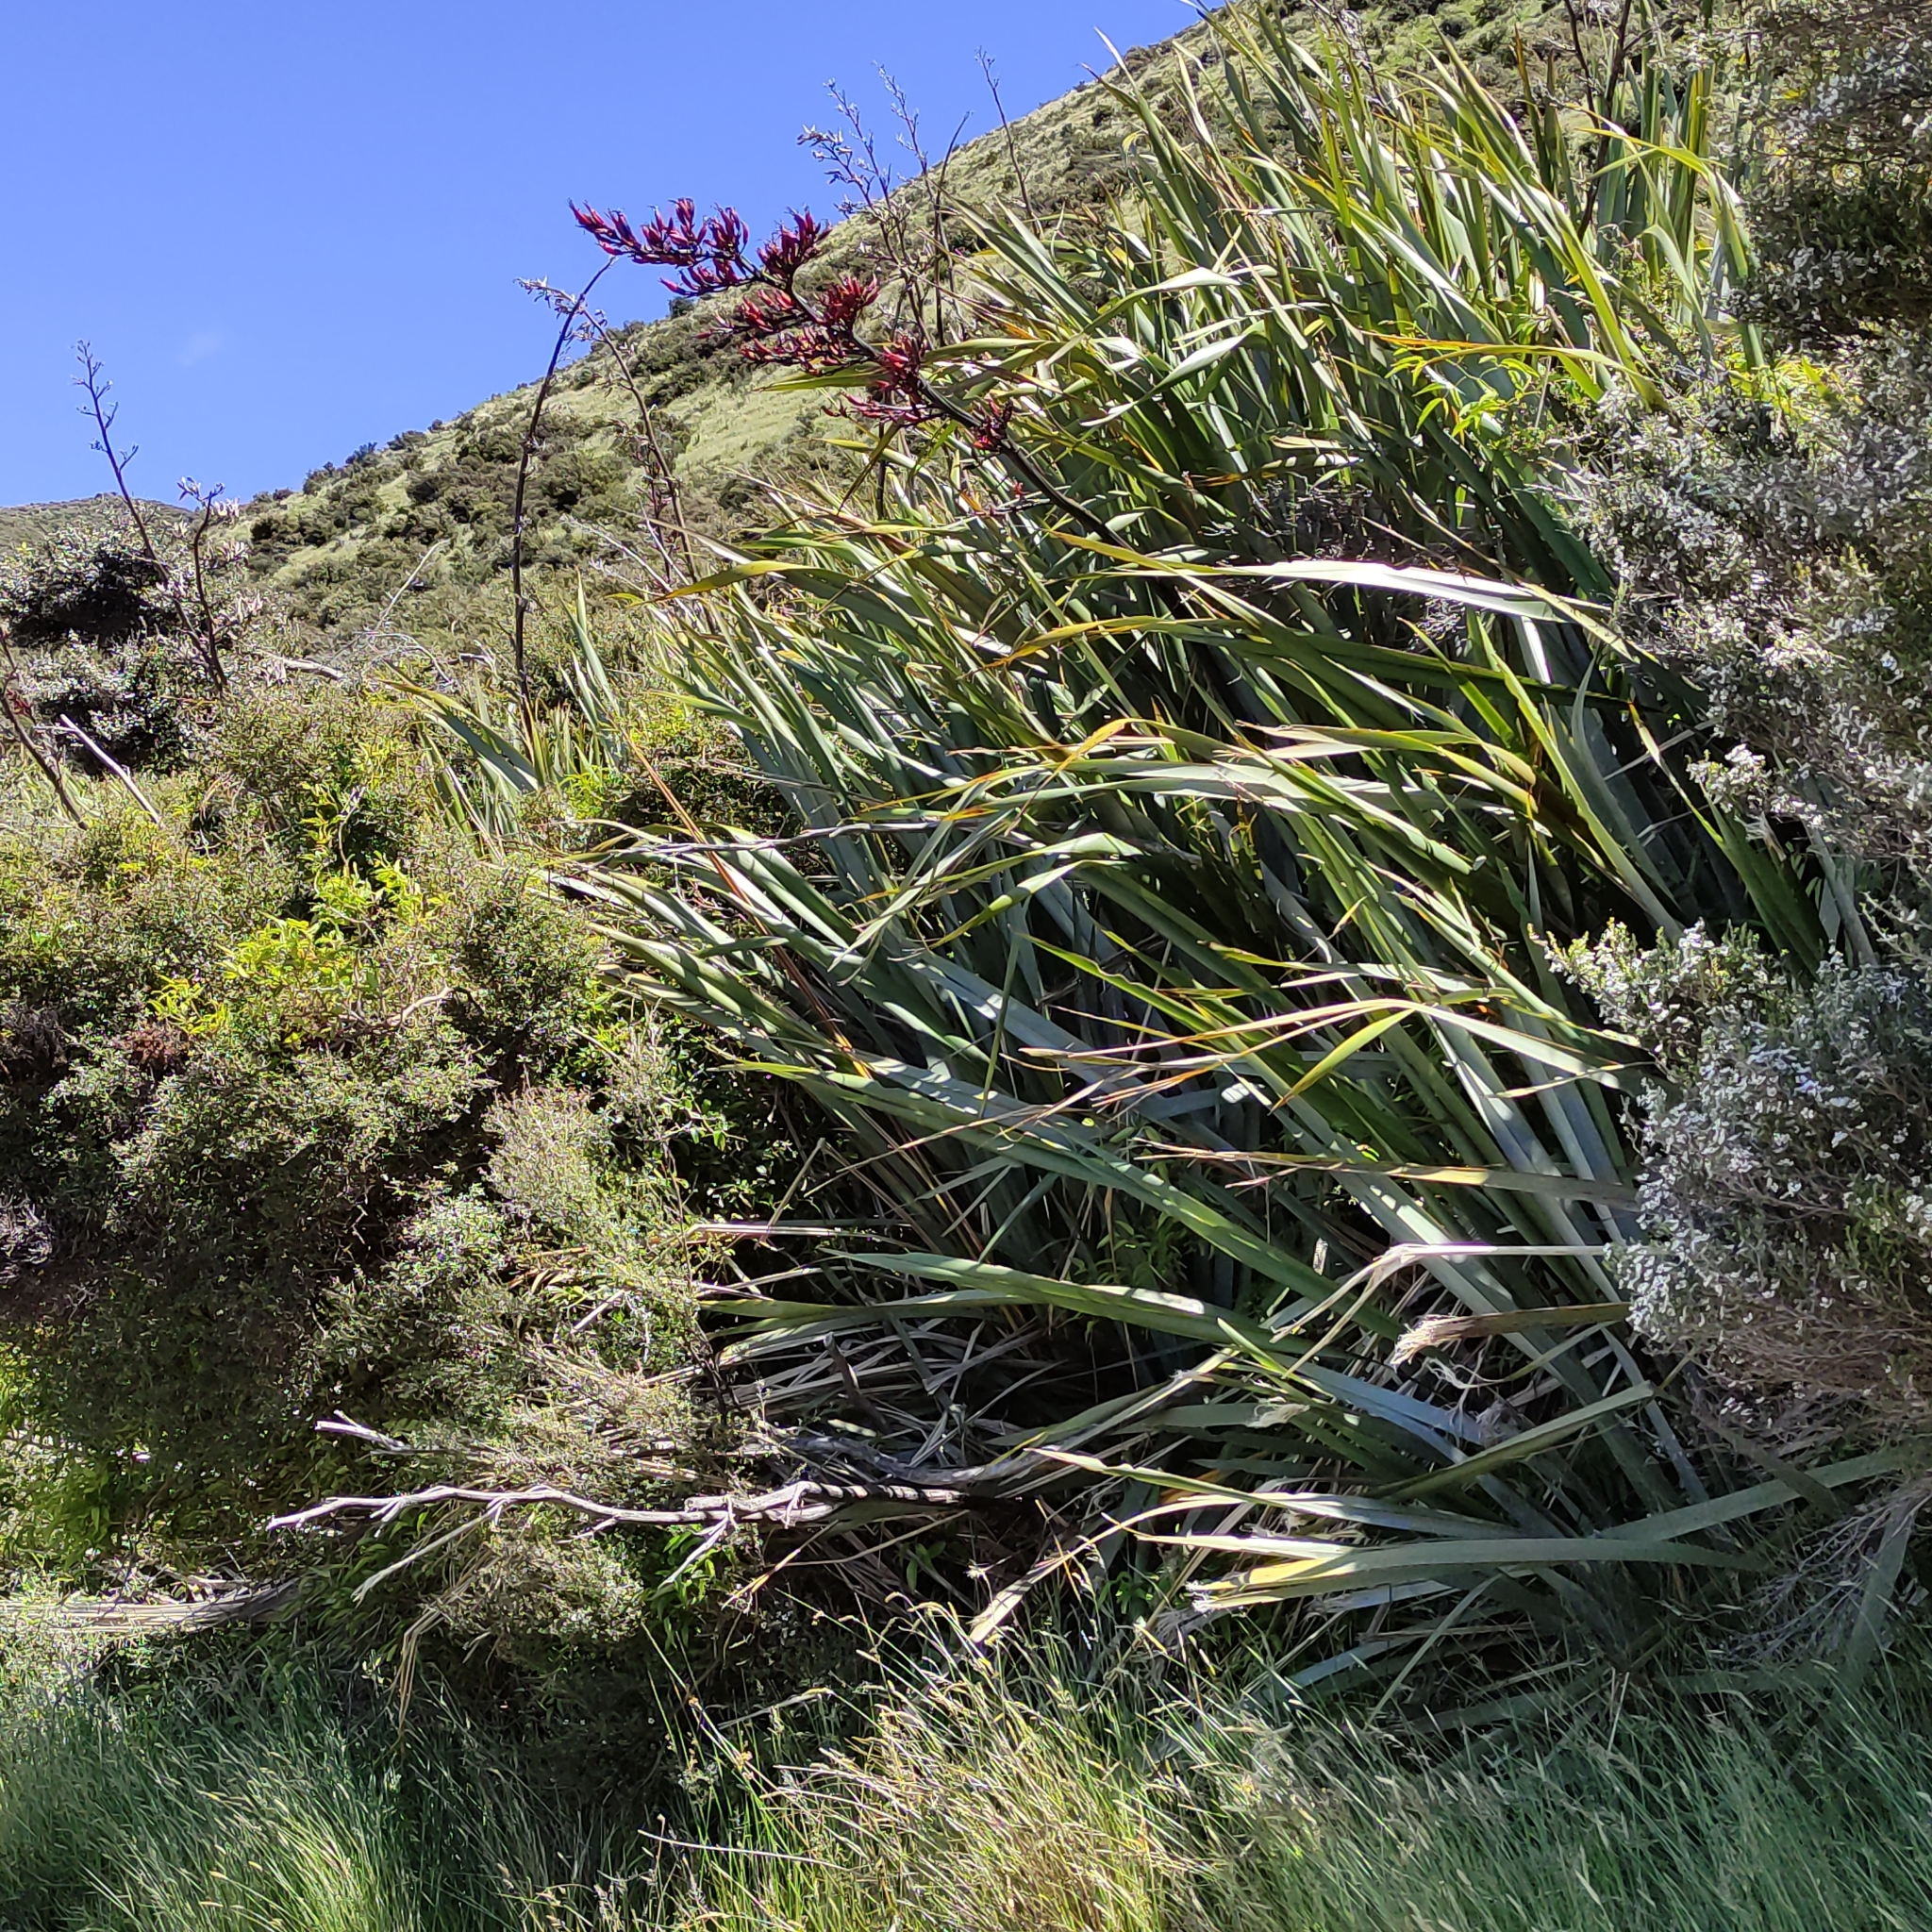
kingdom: Plantae
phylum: Tracheophyta
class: Liliopsida
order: Asparagales
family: Asphodelaceae
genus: Phormium
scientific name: Phormium tenax
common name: New zealand flax
